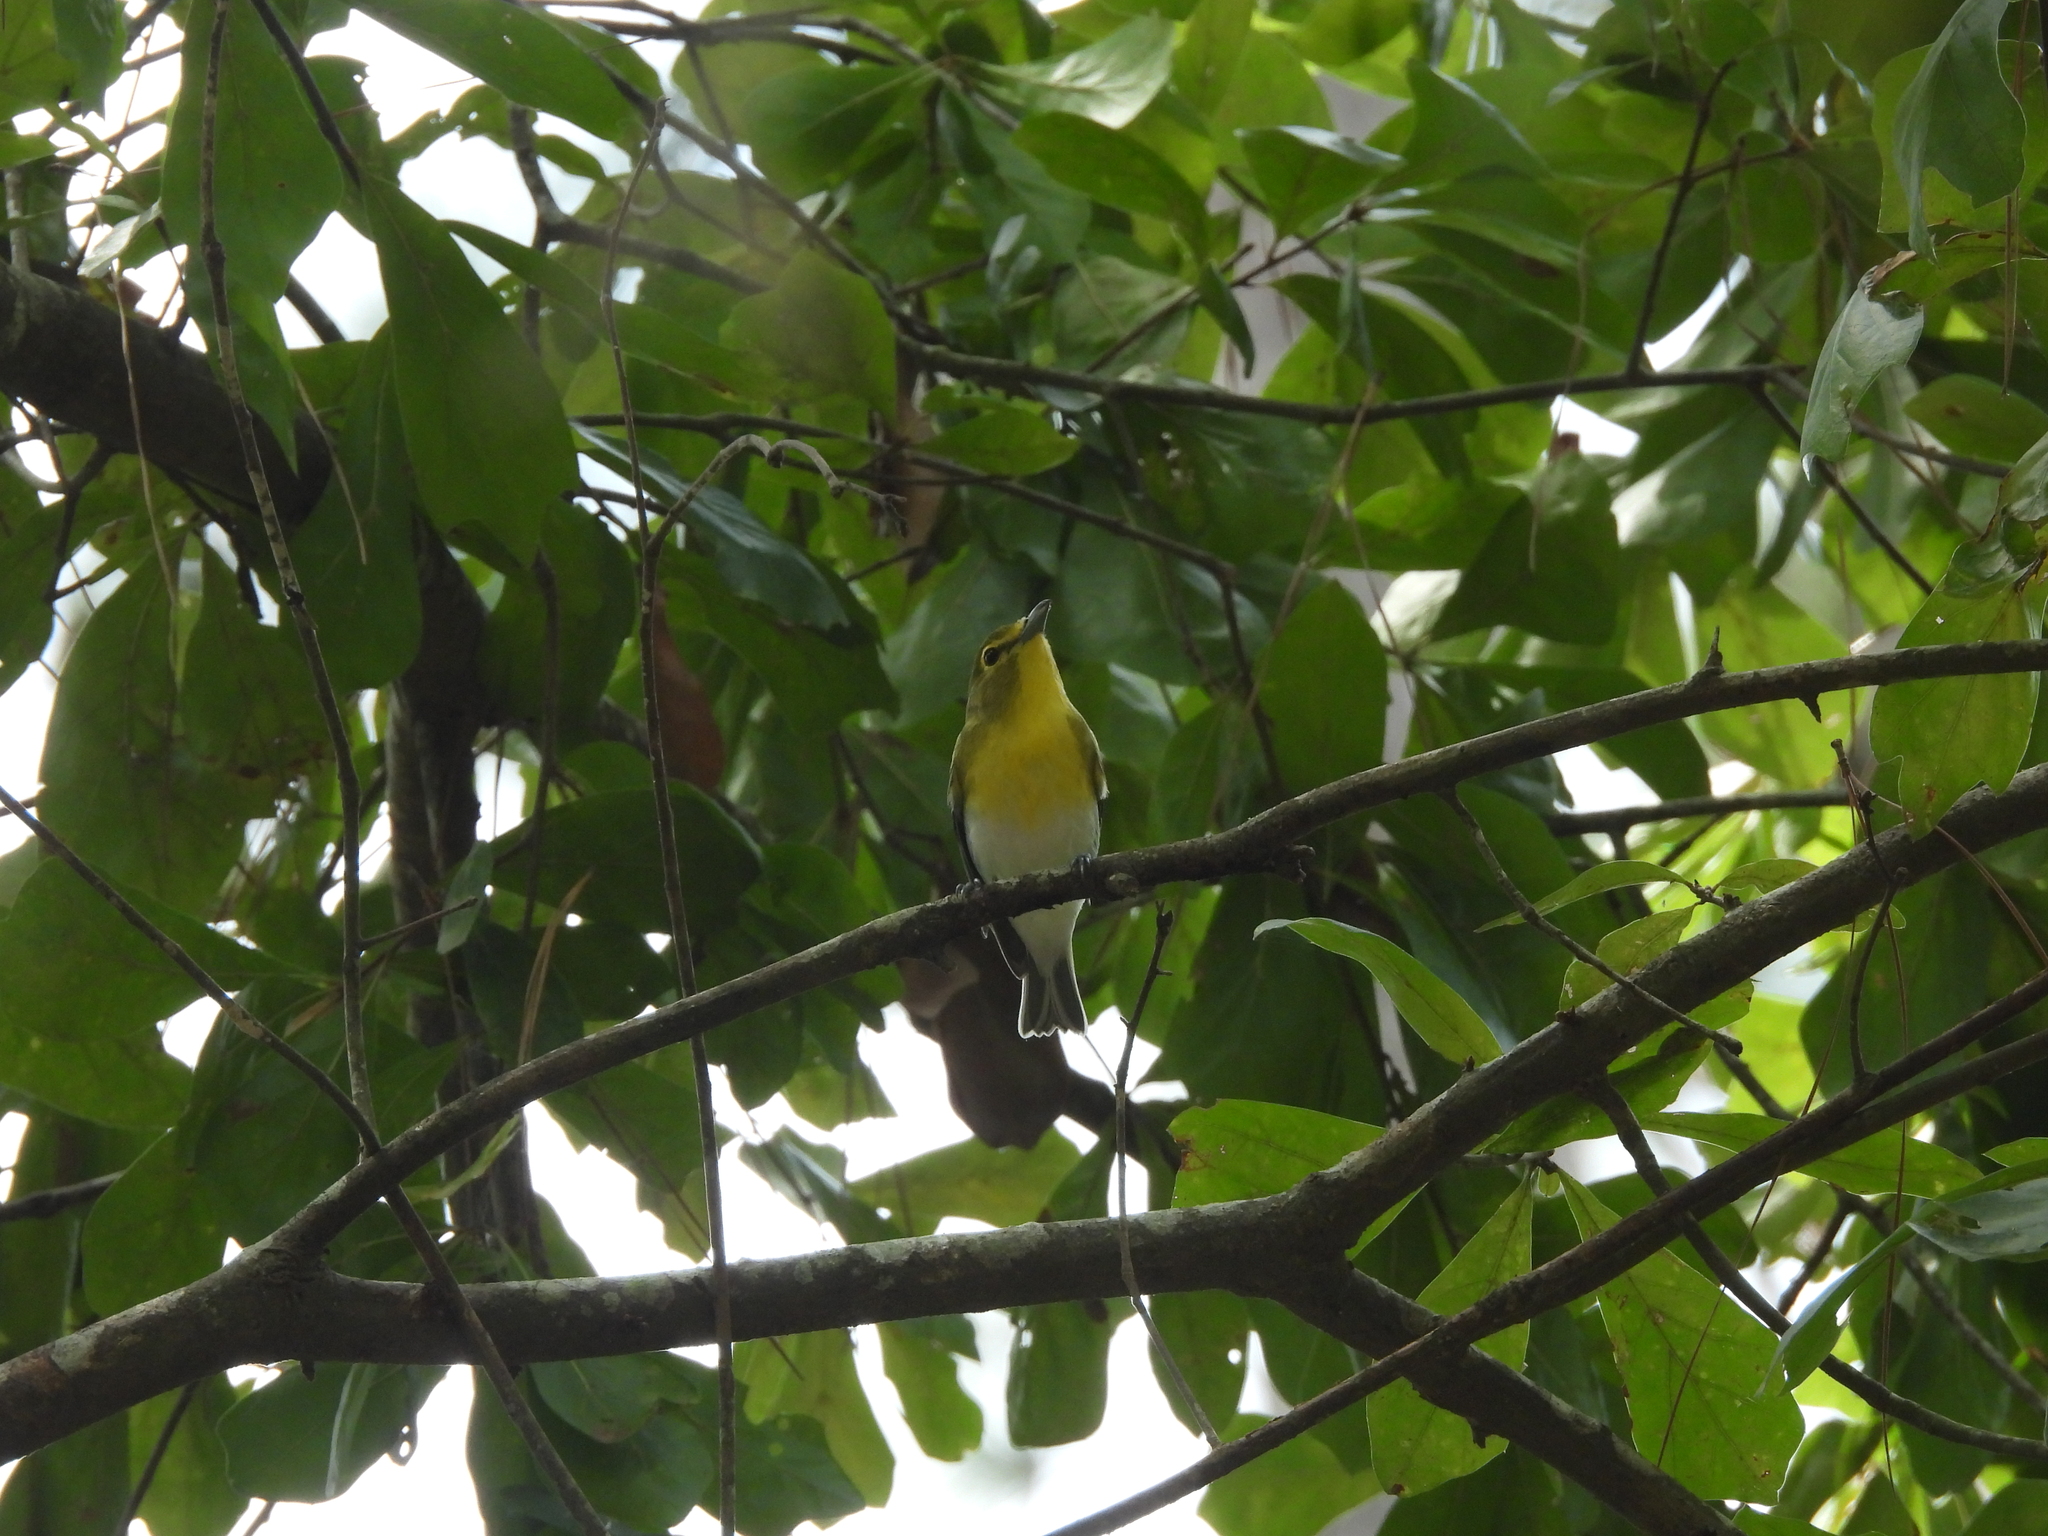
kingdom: Animalia
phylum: Chordata
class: Aves
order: Passeriformes
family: Vireonidae
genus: Vireo
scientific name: Vireo flavifrons
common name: Yellow-throated vireo
